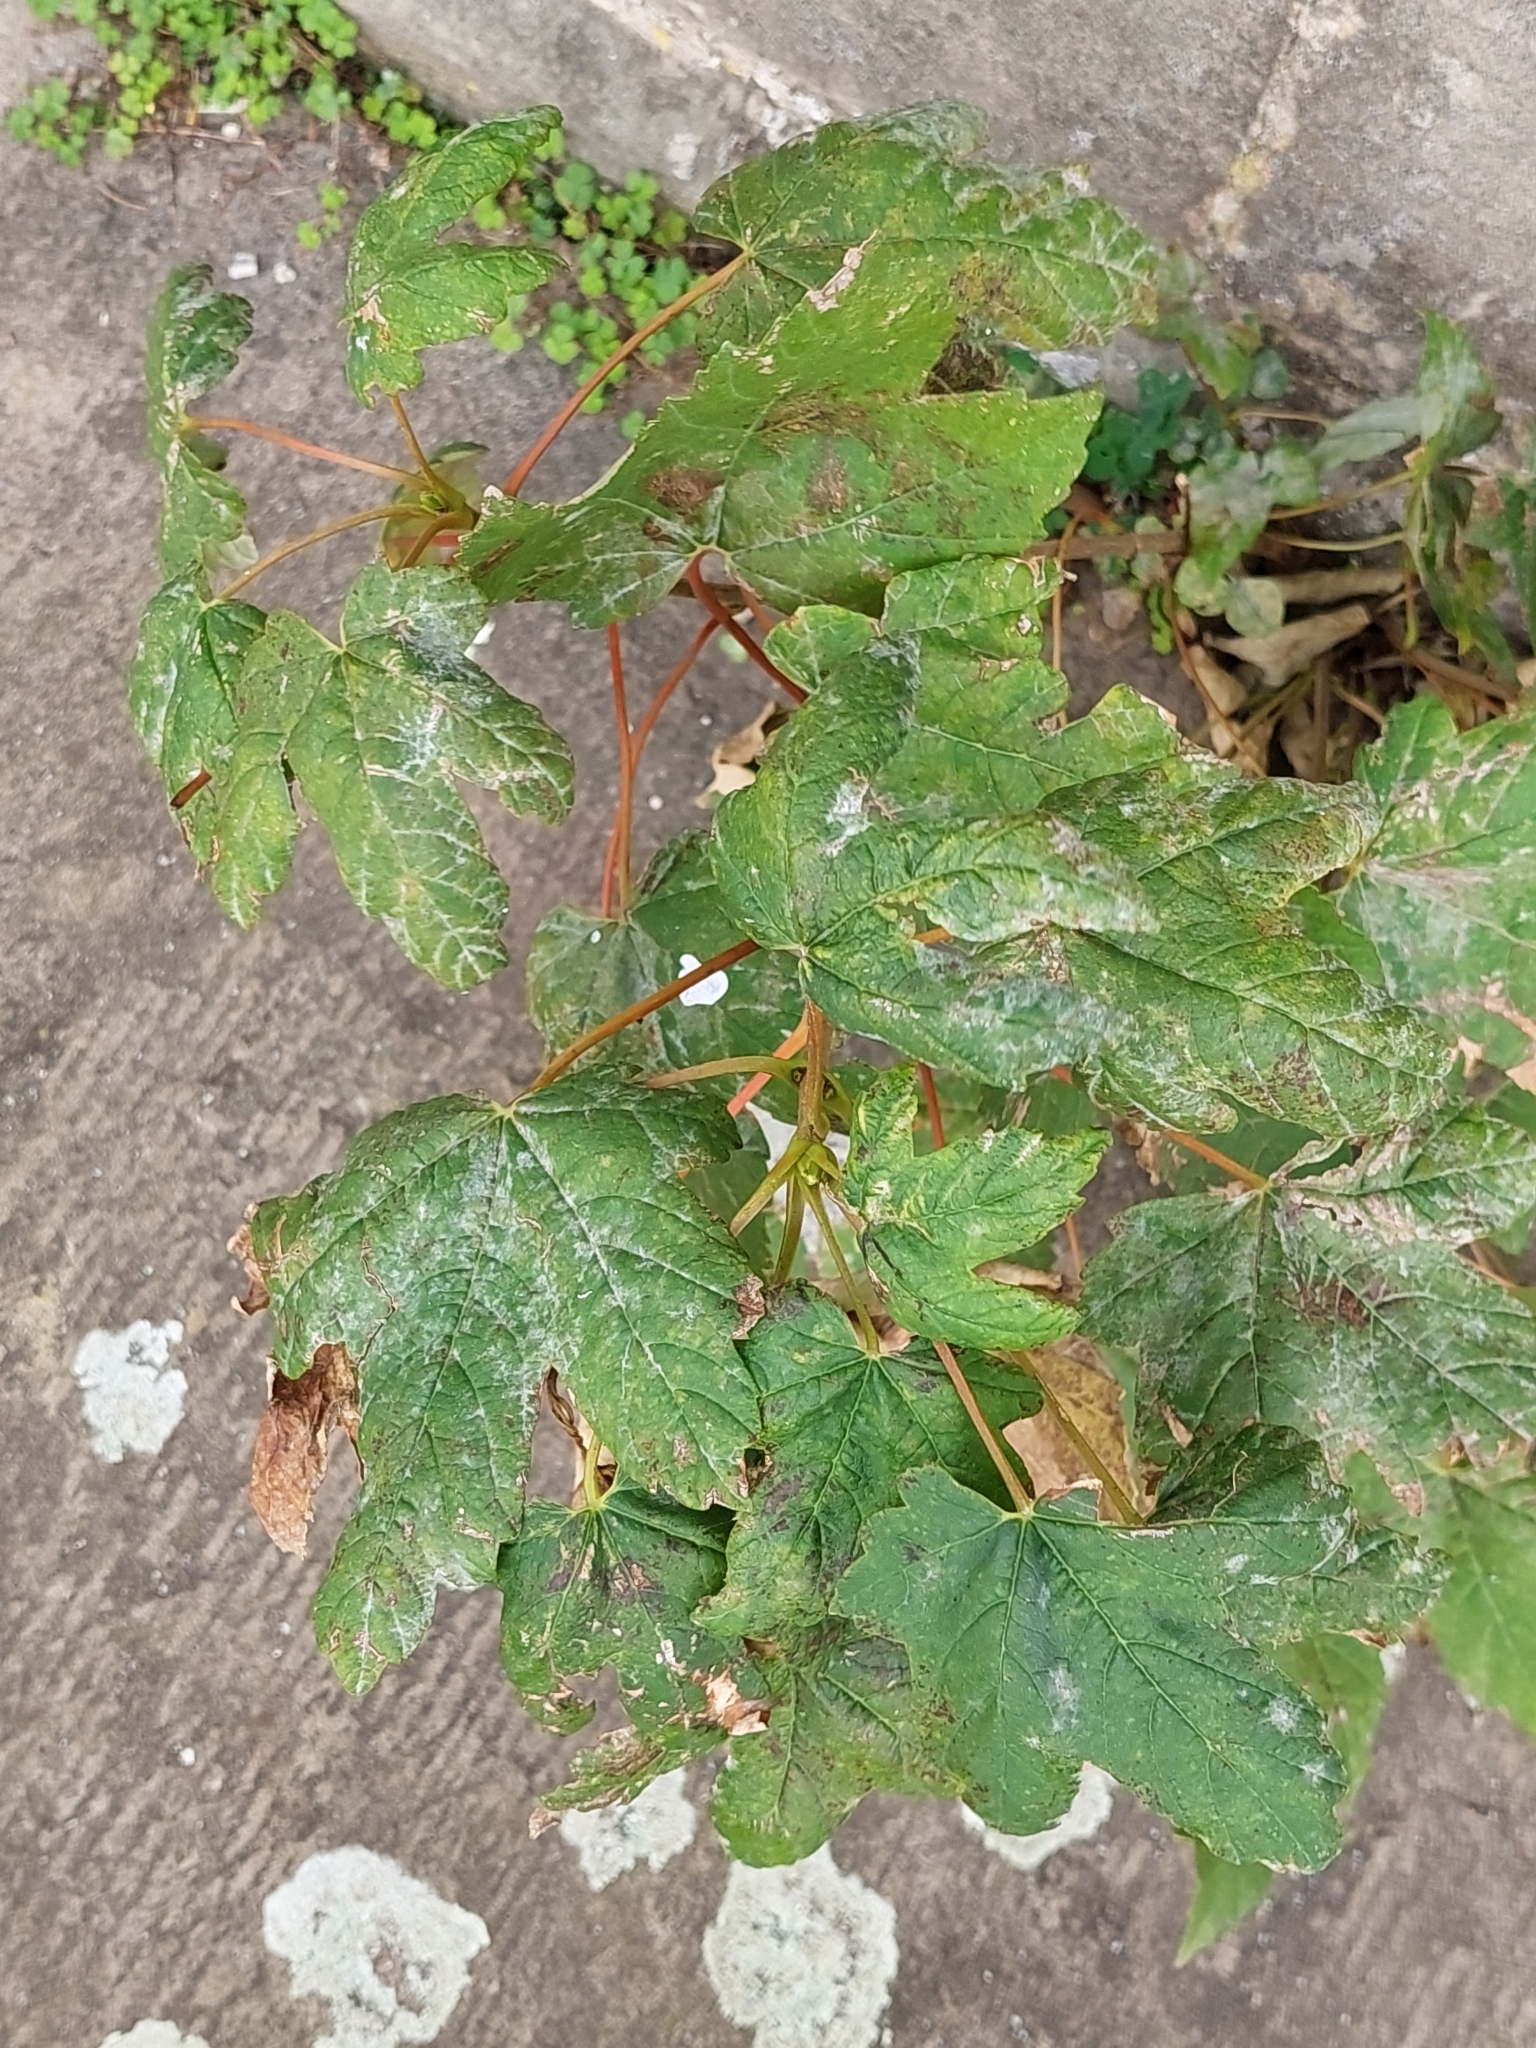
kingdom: Plantae
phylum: Tracheophyta
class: Magnoliopsida
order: Sapindales
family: Sapindaceae
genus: Acer
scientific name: Acer pseudoplatanus
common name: Sycamore
